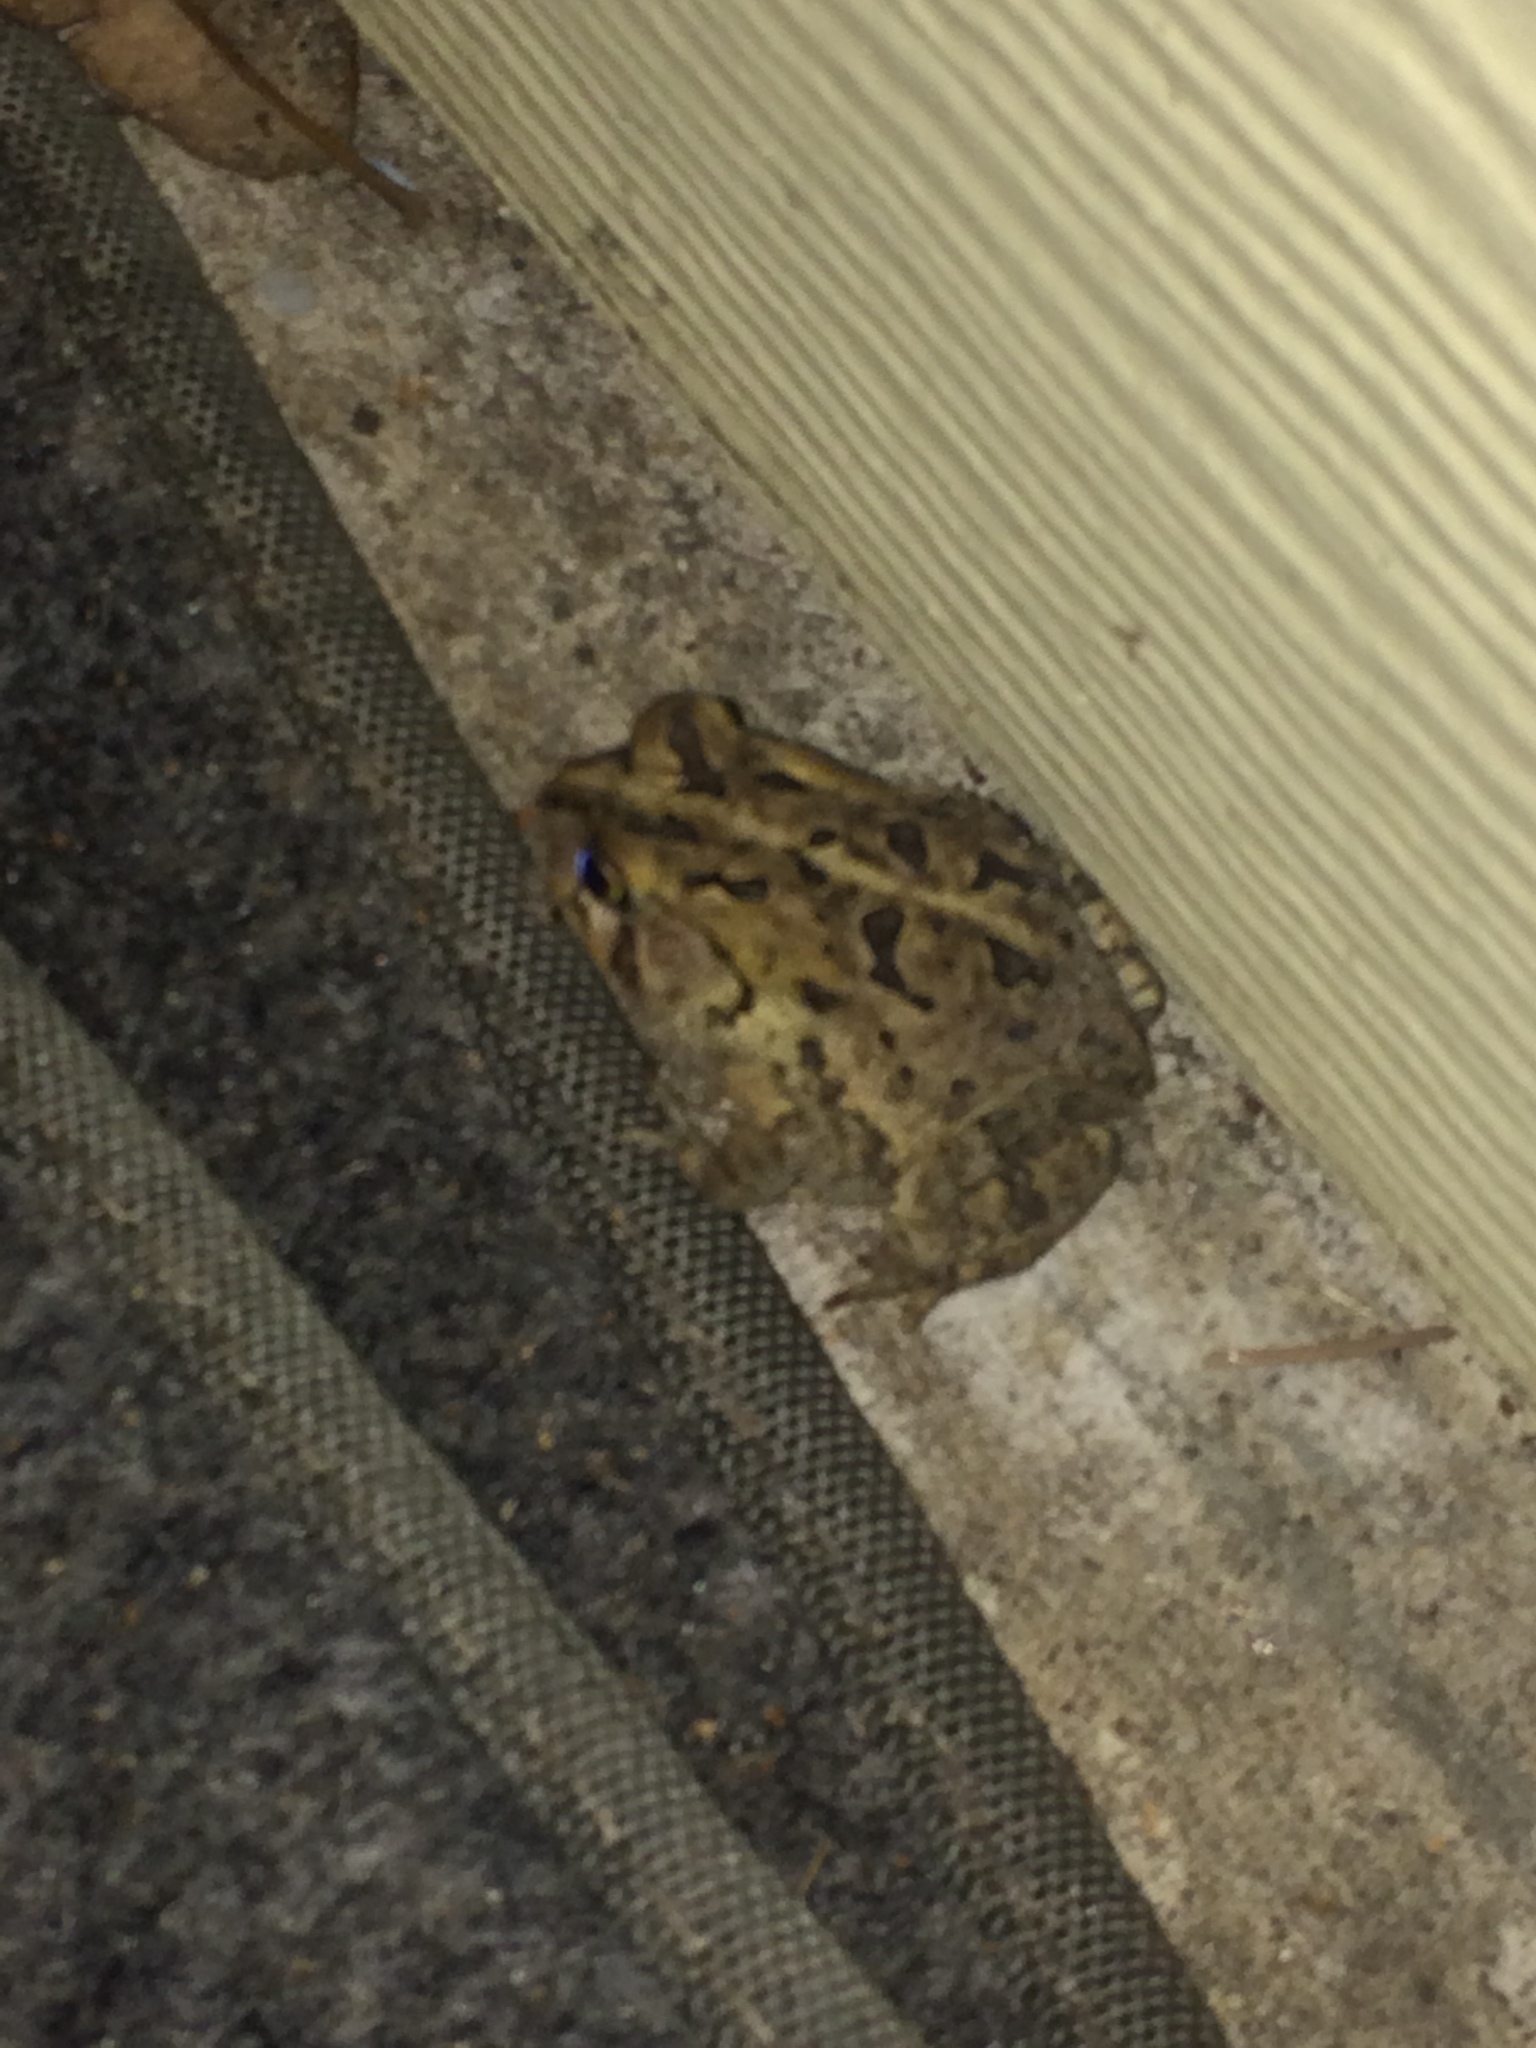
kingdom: Animalia
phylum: Chordata
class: Amphibia
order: Anura
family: Bufonidae
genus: Anaxyrus
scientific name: Anaxyrus terrestris
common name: Southern toad
